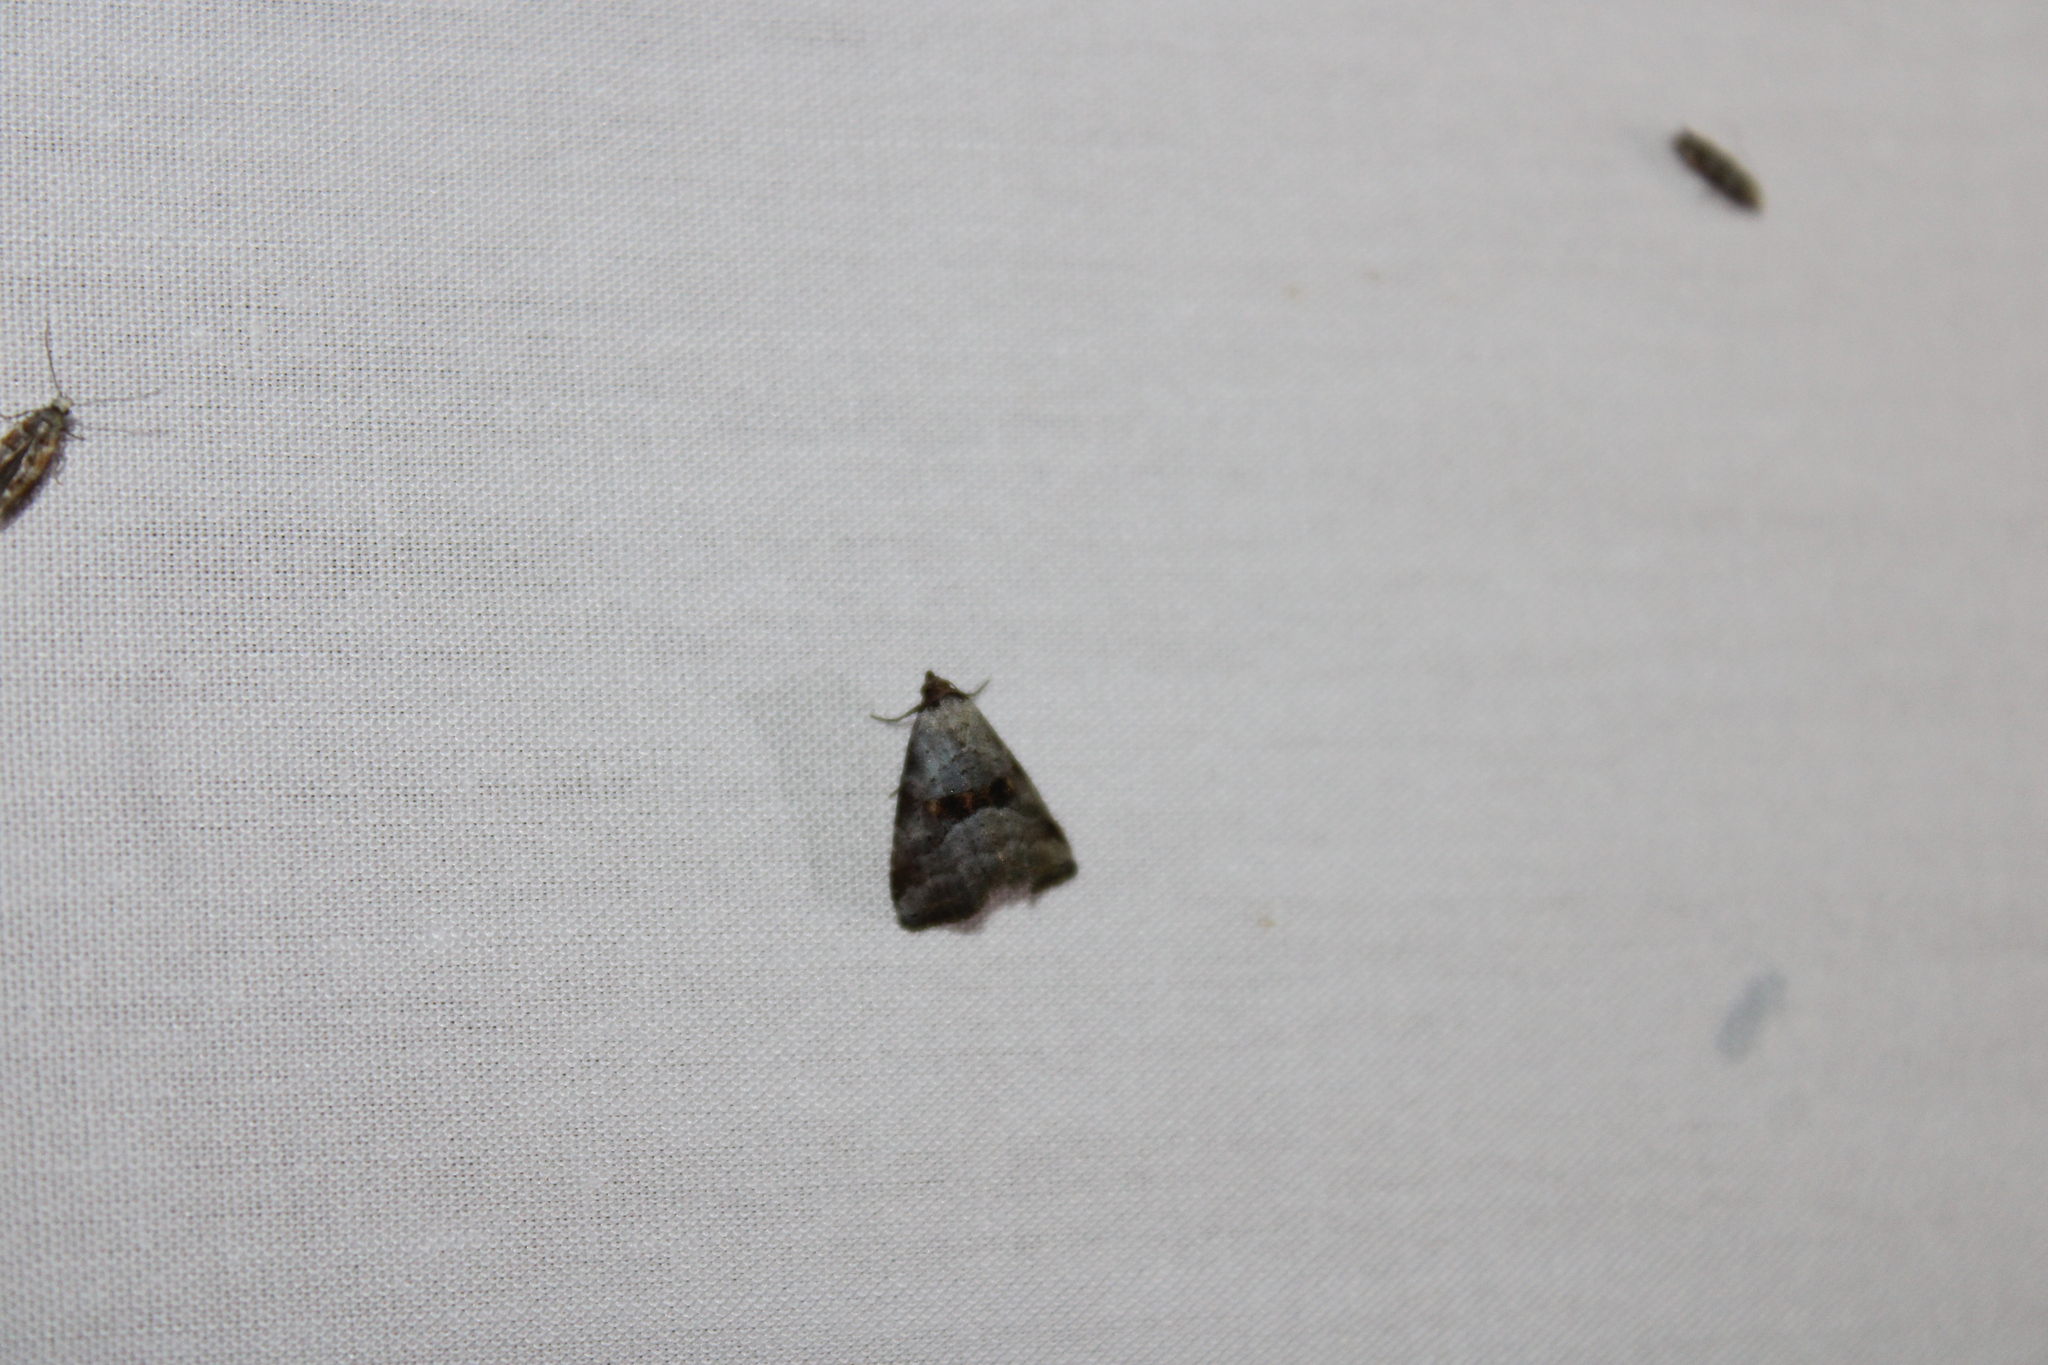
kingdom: Animalia
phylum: Arthropoda
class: Insecta
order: Lepidoptera
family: Erebidae
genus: Hyperstrotia
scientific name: Hyperstrotia flaviguttata
